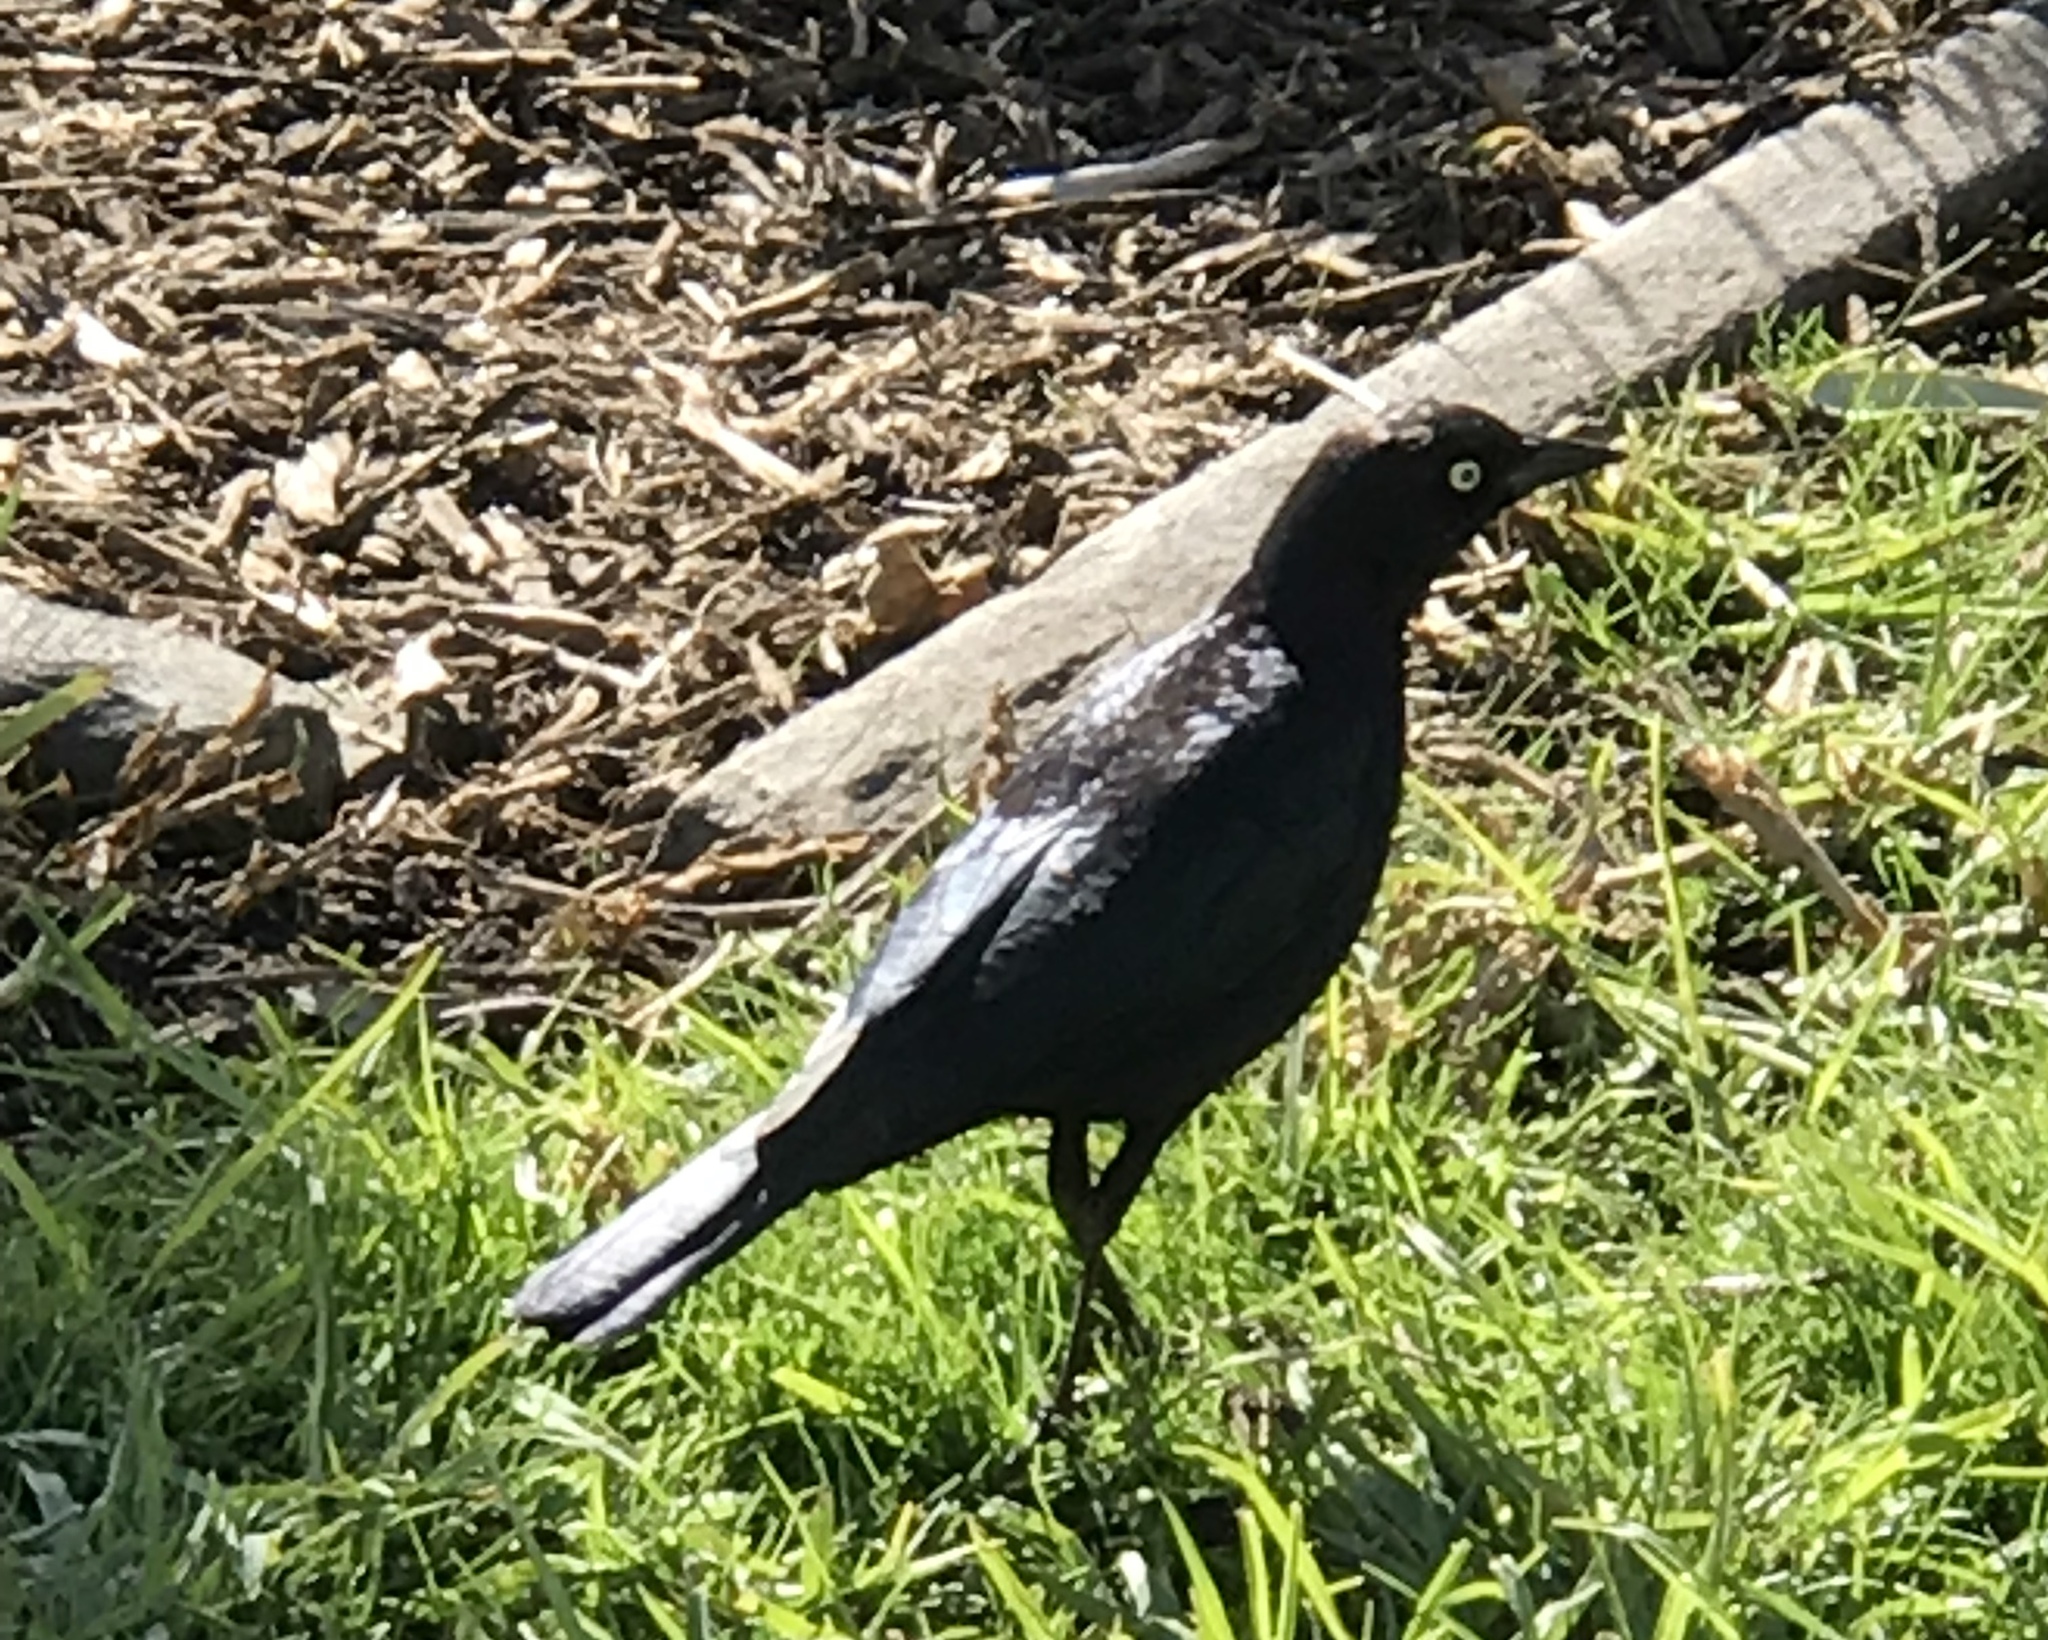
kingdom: Animalia
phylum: Chordata
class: Aves
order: Passeriformes
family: Icteridae
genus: Euphagus
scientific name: Euphagus cyanocephalus
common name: Brewer's blackbird
